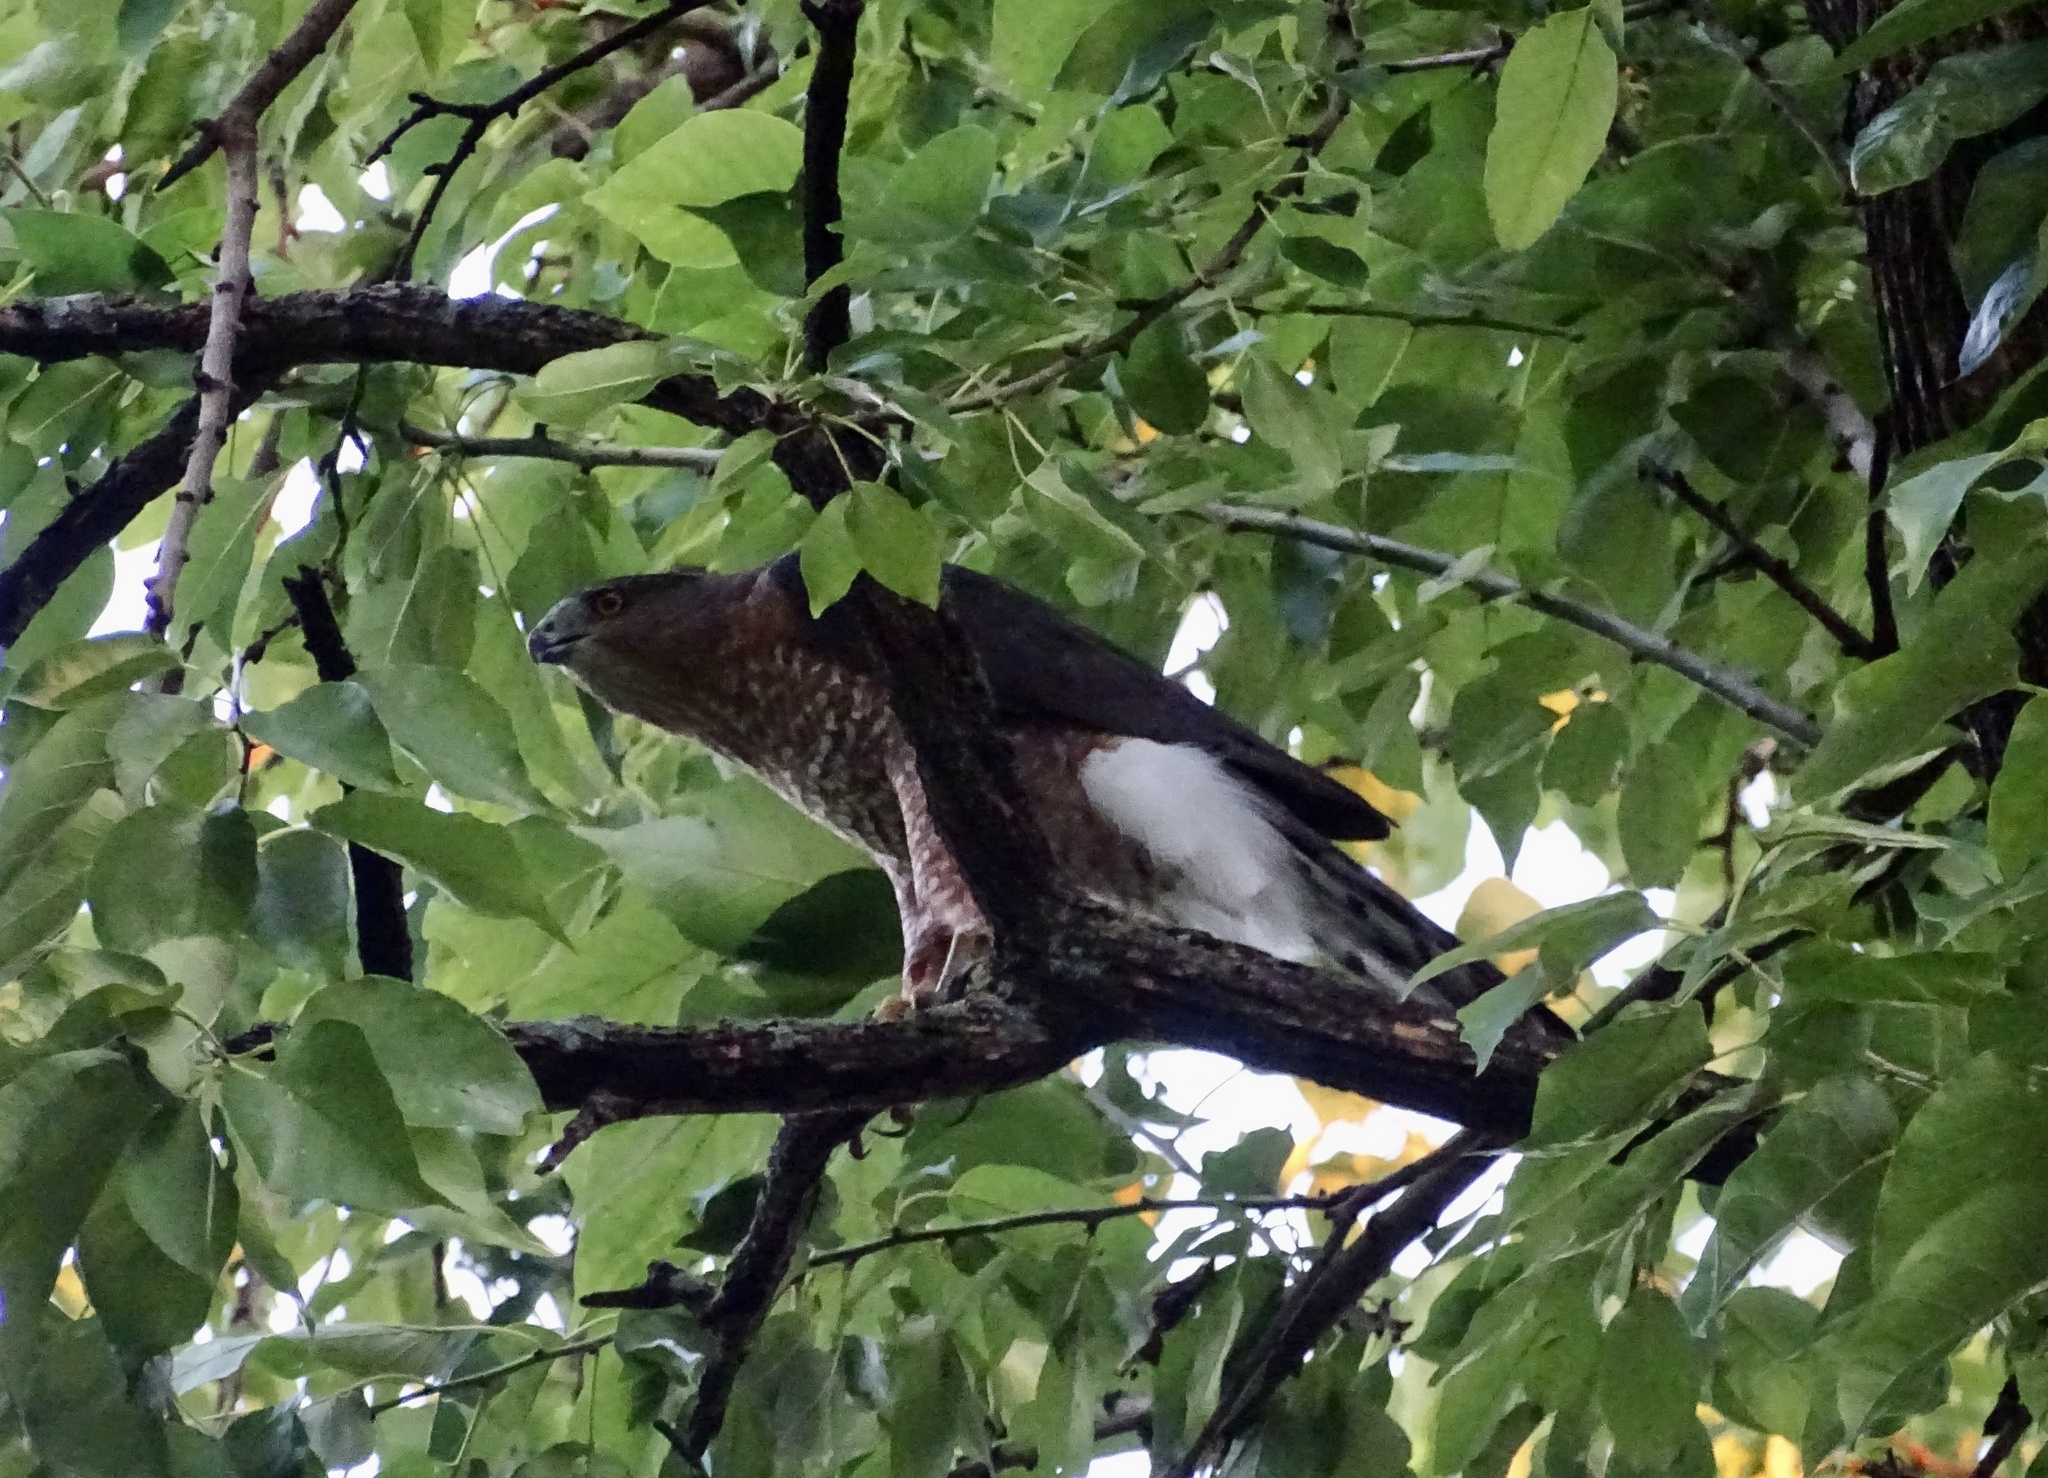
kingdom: Animalia
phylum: Chordata
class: Aves
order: Accipitriformes
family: Accipitridae
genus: Accipiter
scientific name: Accipiter cooperii
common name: Cooper's hawk
